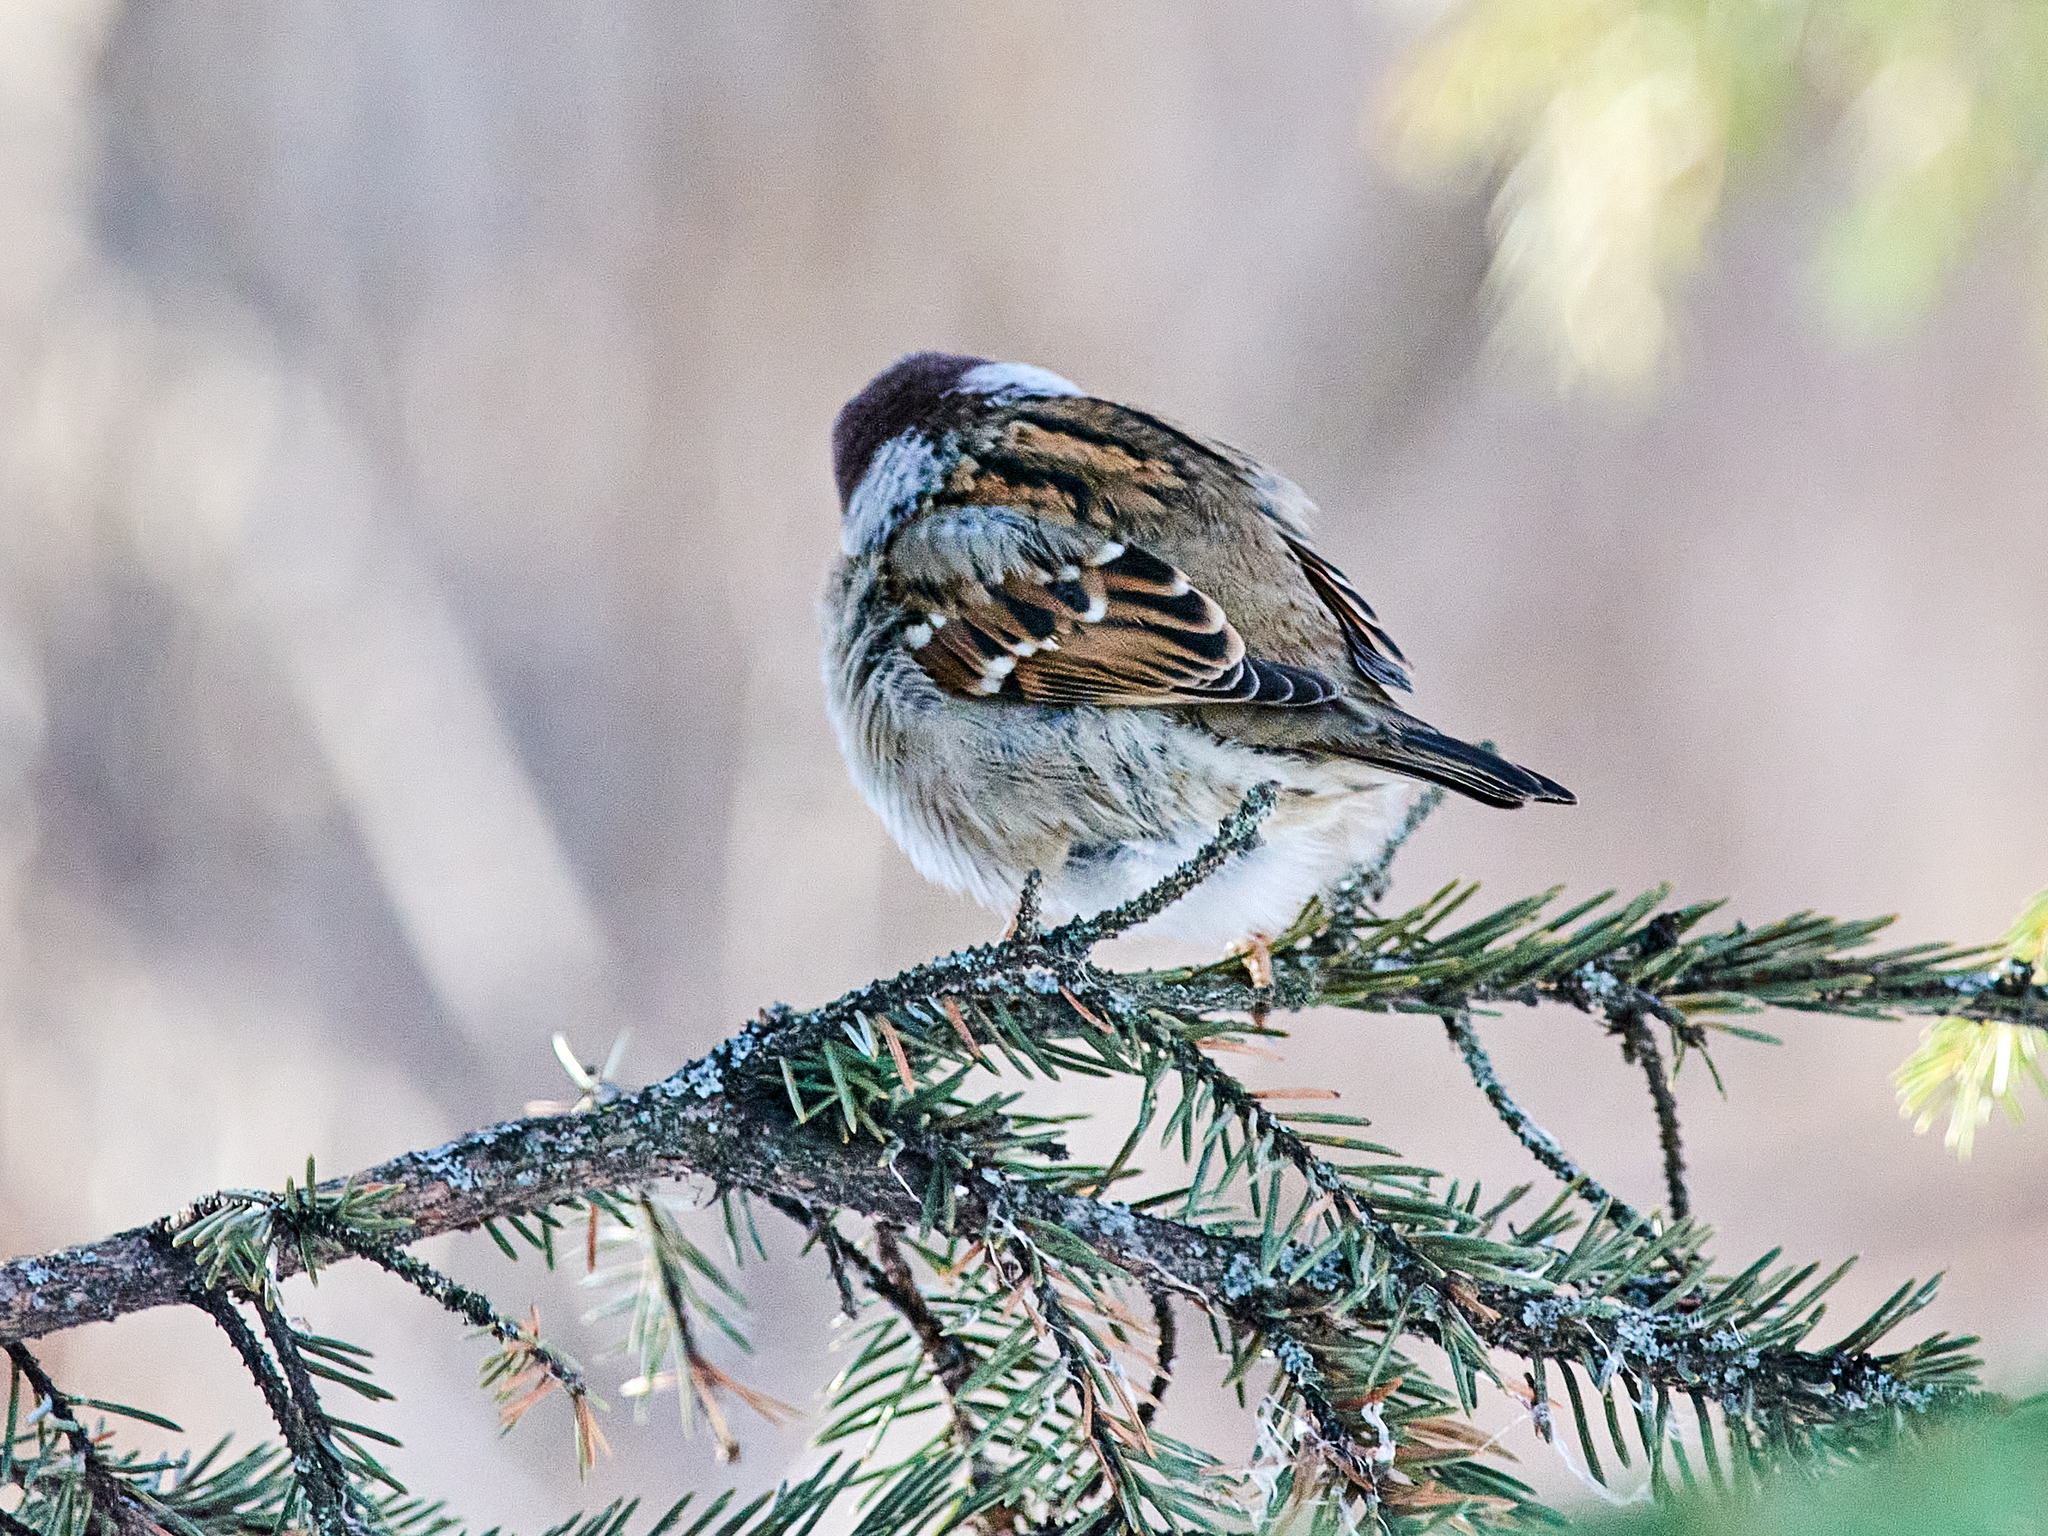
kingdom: Animalia
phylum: Chordata
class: Aves
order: Passeriformes
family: Passeridae
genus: Passer
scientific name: Passer montanus
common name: Eurasian tree sparrow
